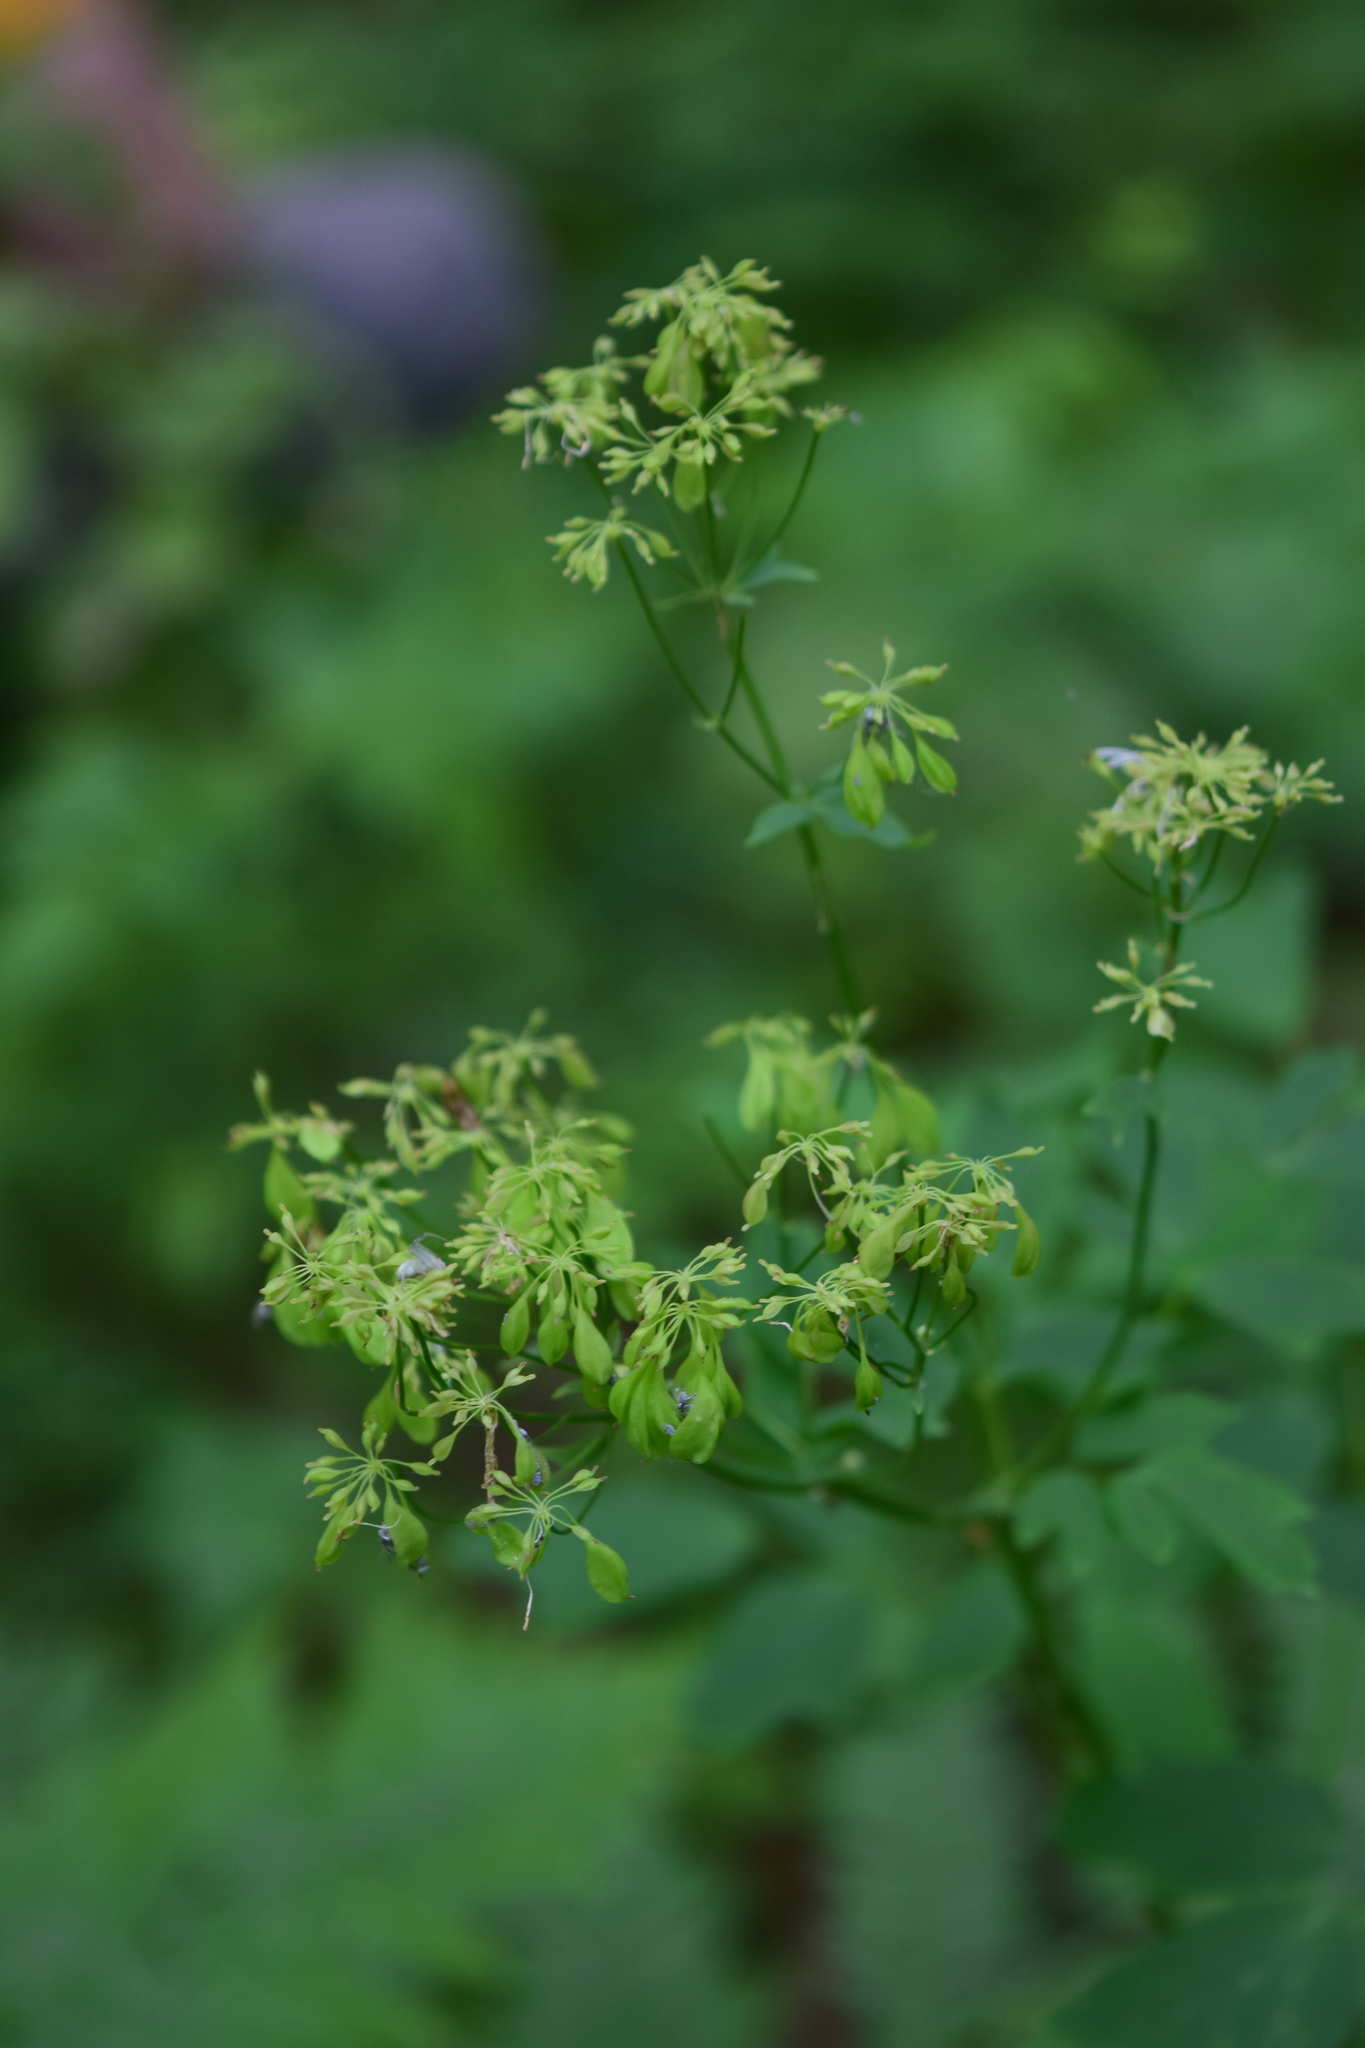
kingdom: Plantae
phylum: Tracheophyta
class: Magnoliopsida
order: Ranunculales
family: Ranunculaceae
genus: Thalictrum
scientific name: Thalictrum aquilegiifolium
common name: French meadow-rue
